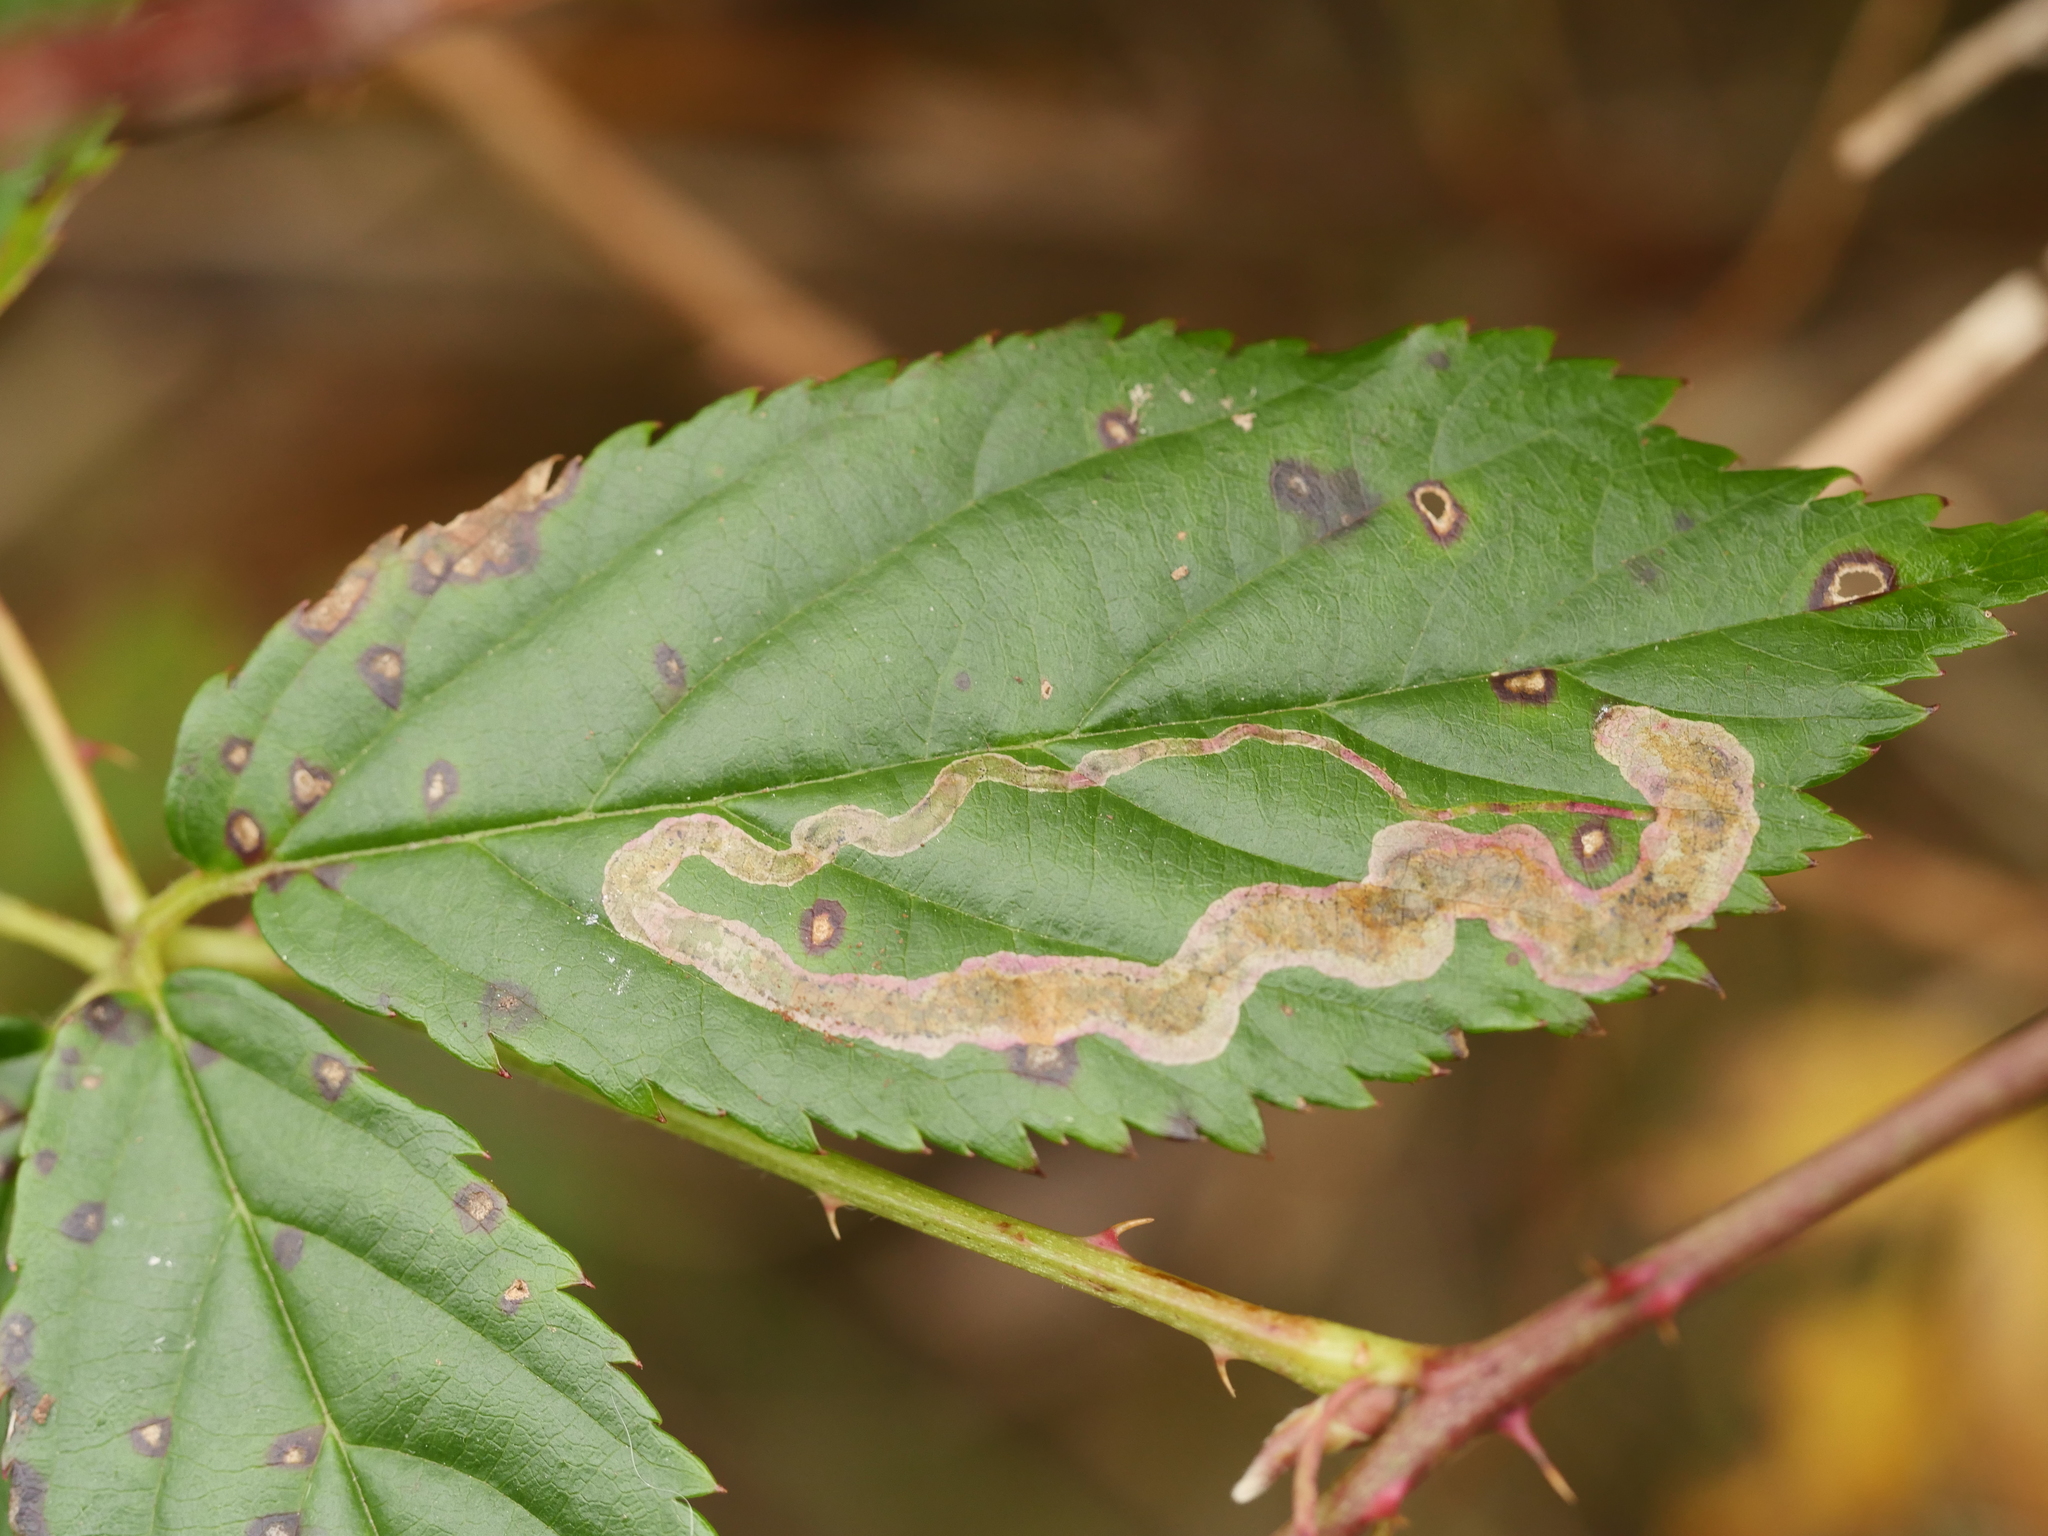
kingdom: Animalia
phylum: Arthropoda
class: Insecta
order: Diptera
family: Agromyzidae
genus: Agromyza
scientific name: Agromyza vockerothi
